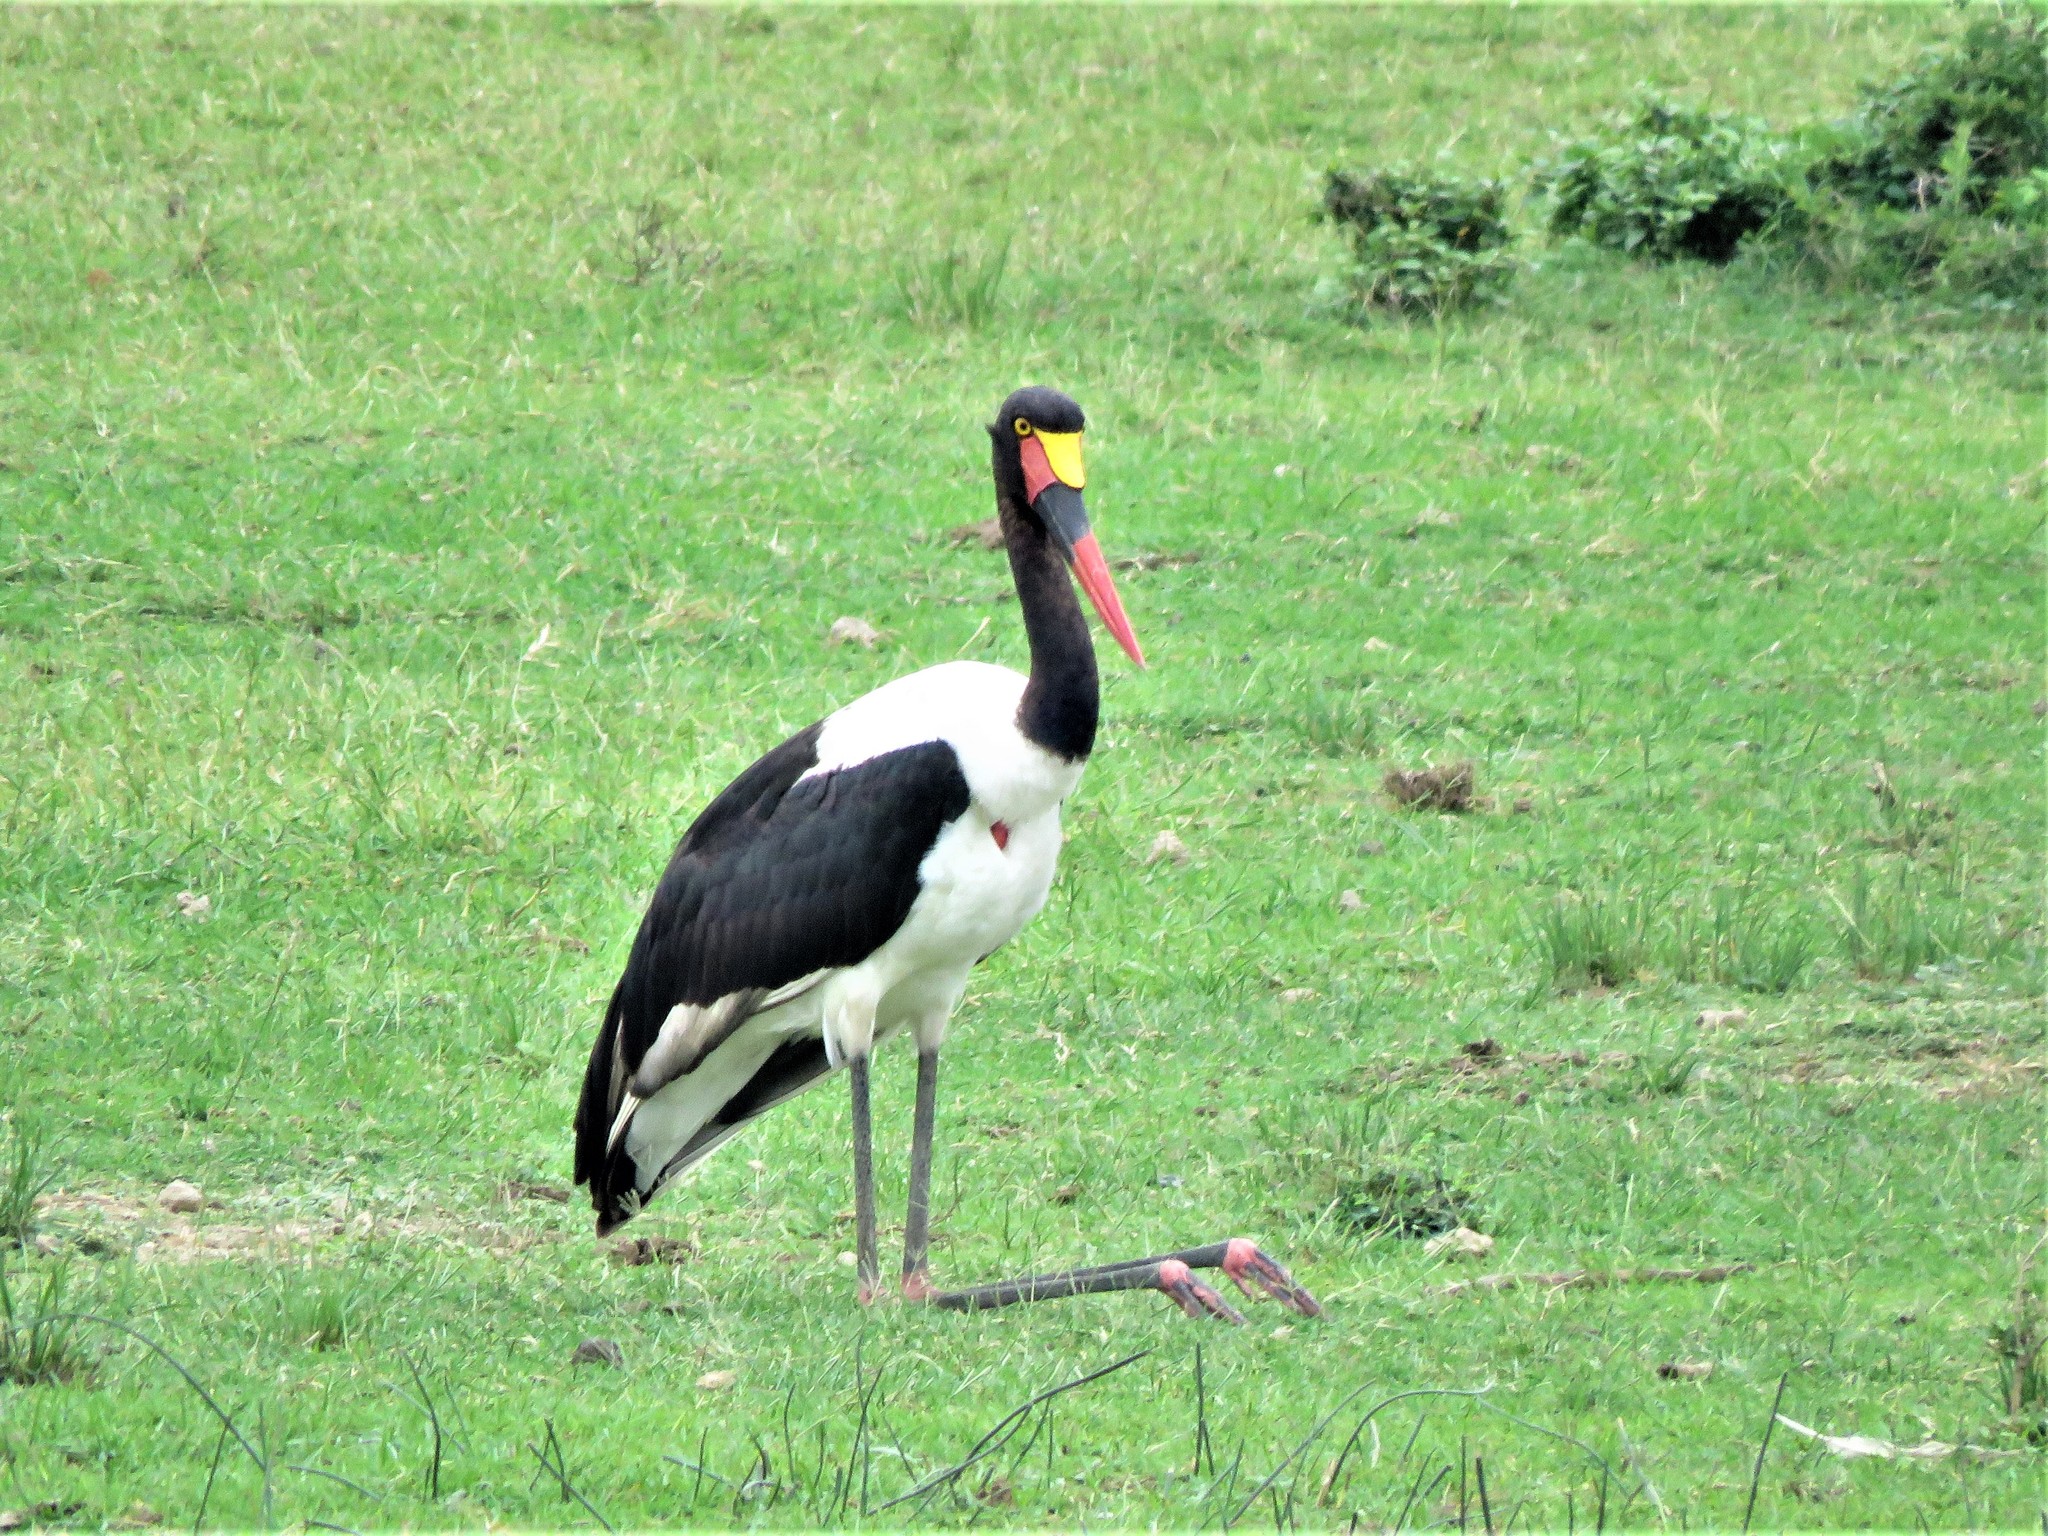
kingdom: Animalia
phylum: Chordata
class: Aves
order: Ciconiiformes
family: Ciconiidae
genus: Ephippiorhynchus
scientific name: Ephippiorhynchus senegalensis
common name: Saddle-billed stork
